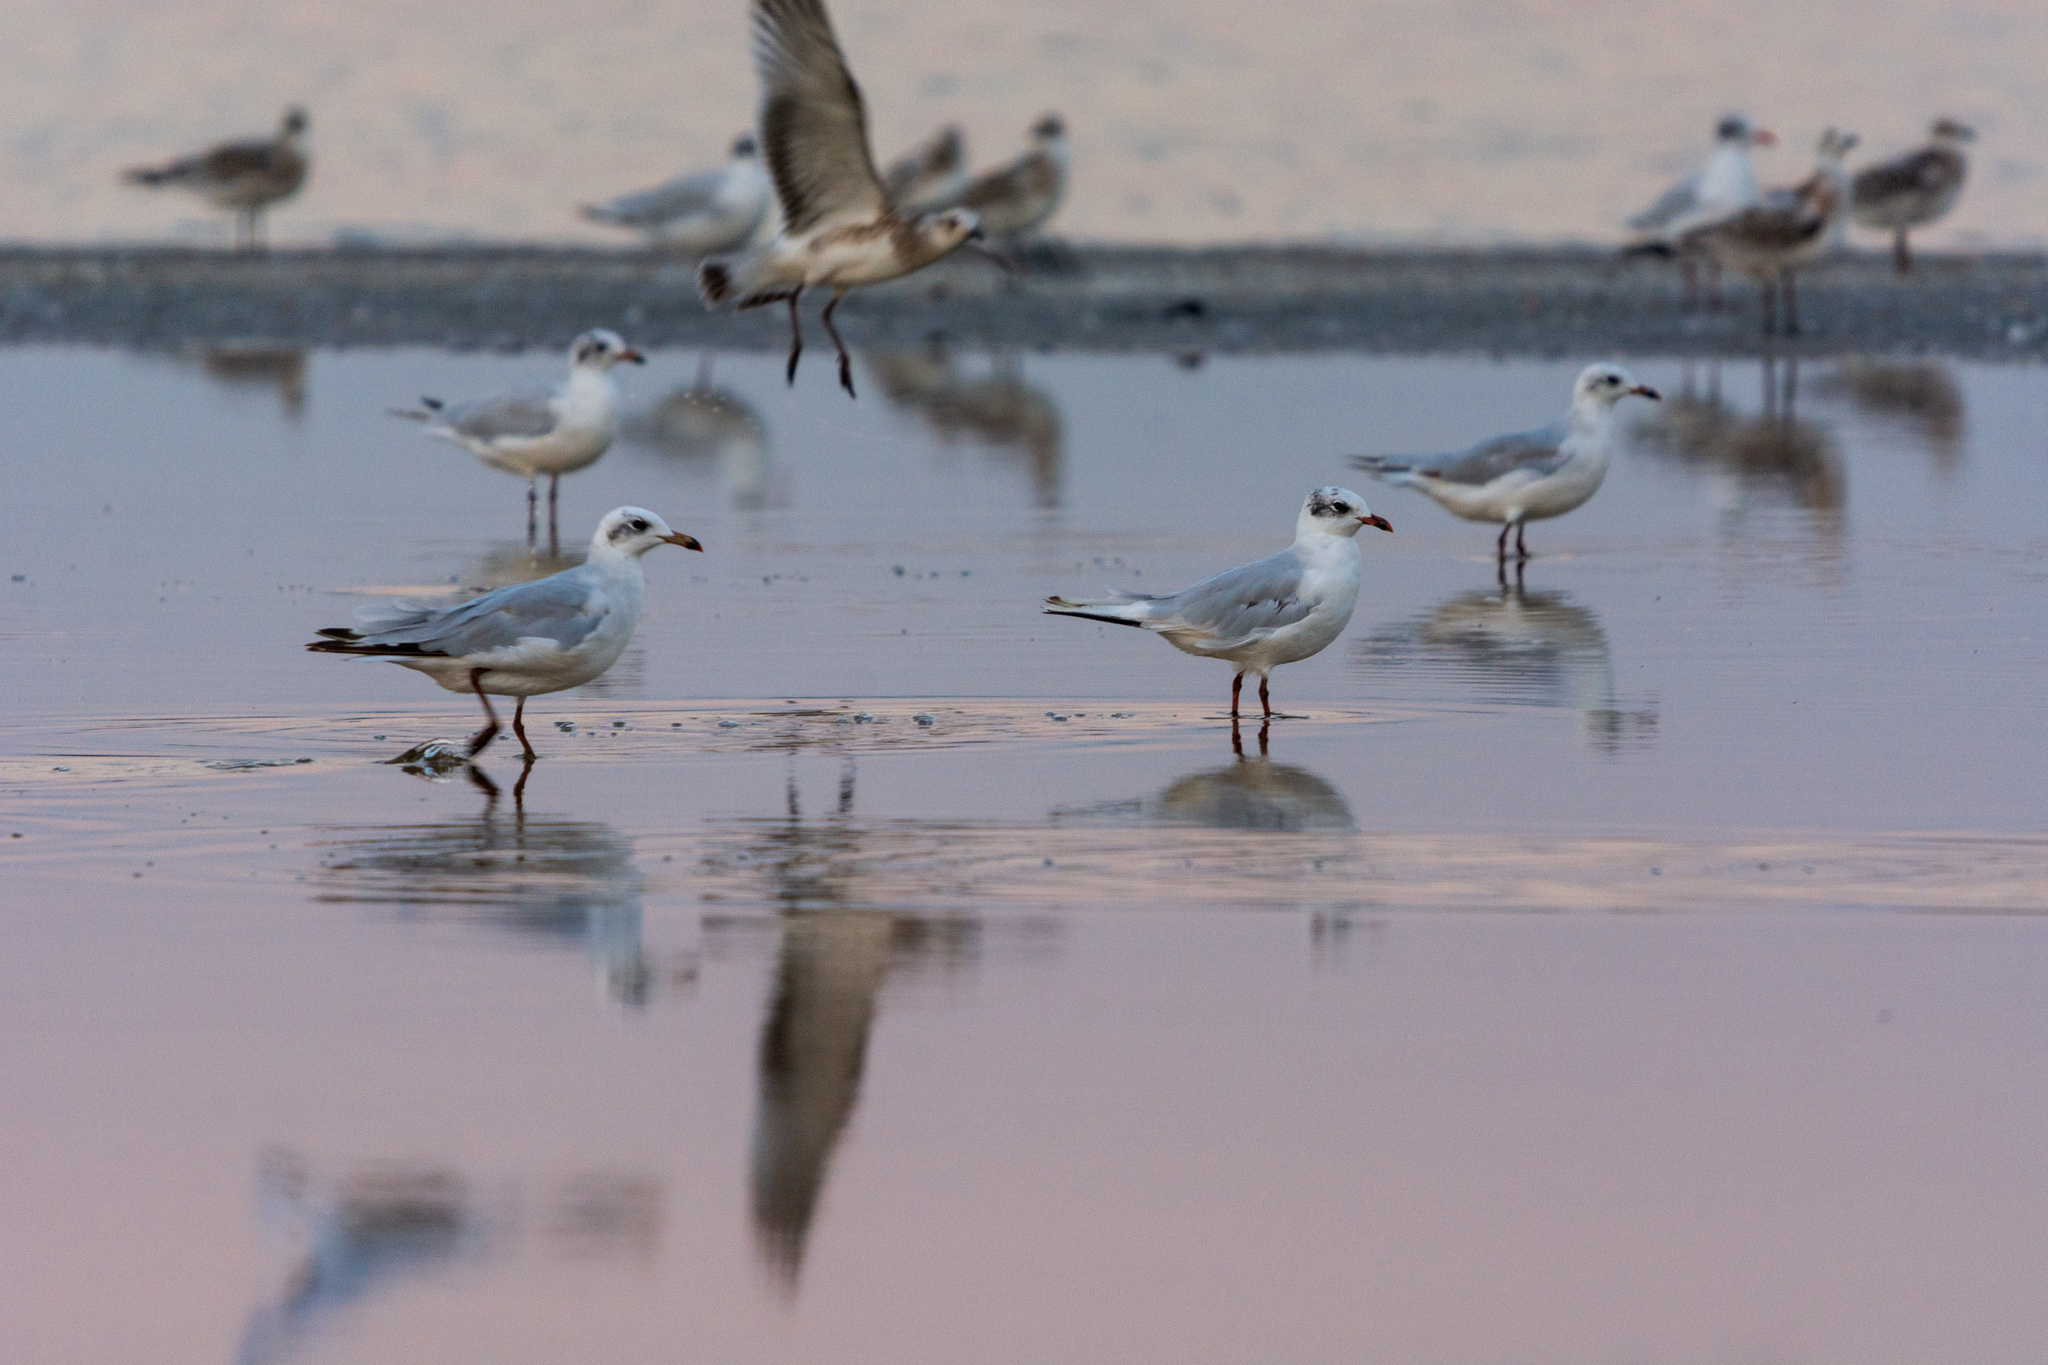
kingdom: Animalia
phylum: Chordata
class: Aves
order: Charadriiformes
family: Laridae
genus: Ichthyaetus
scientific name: Ichthyaetus melanocephalus
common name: Mediterranean gull
